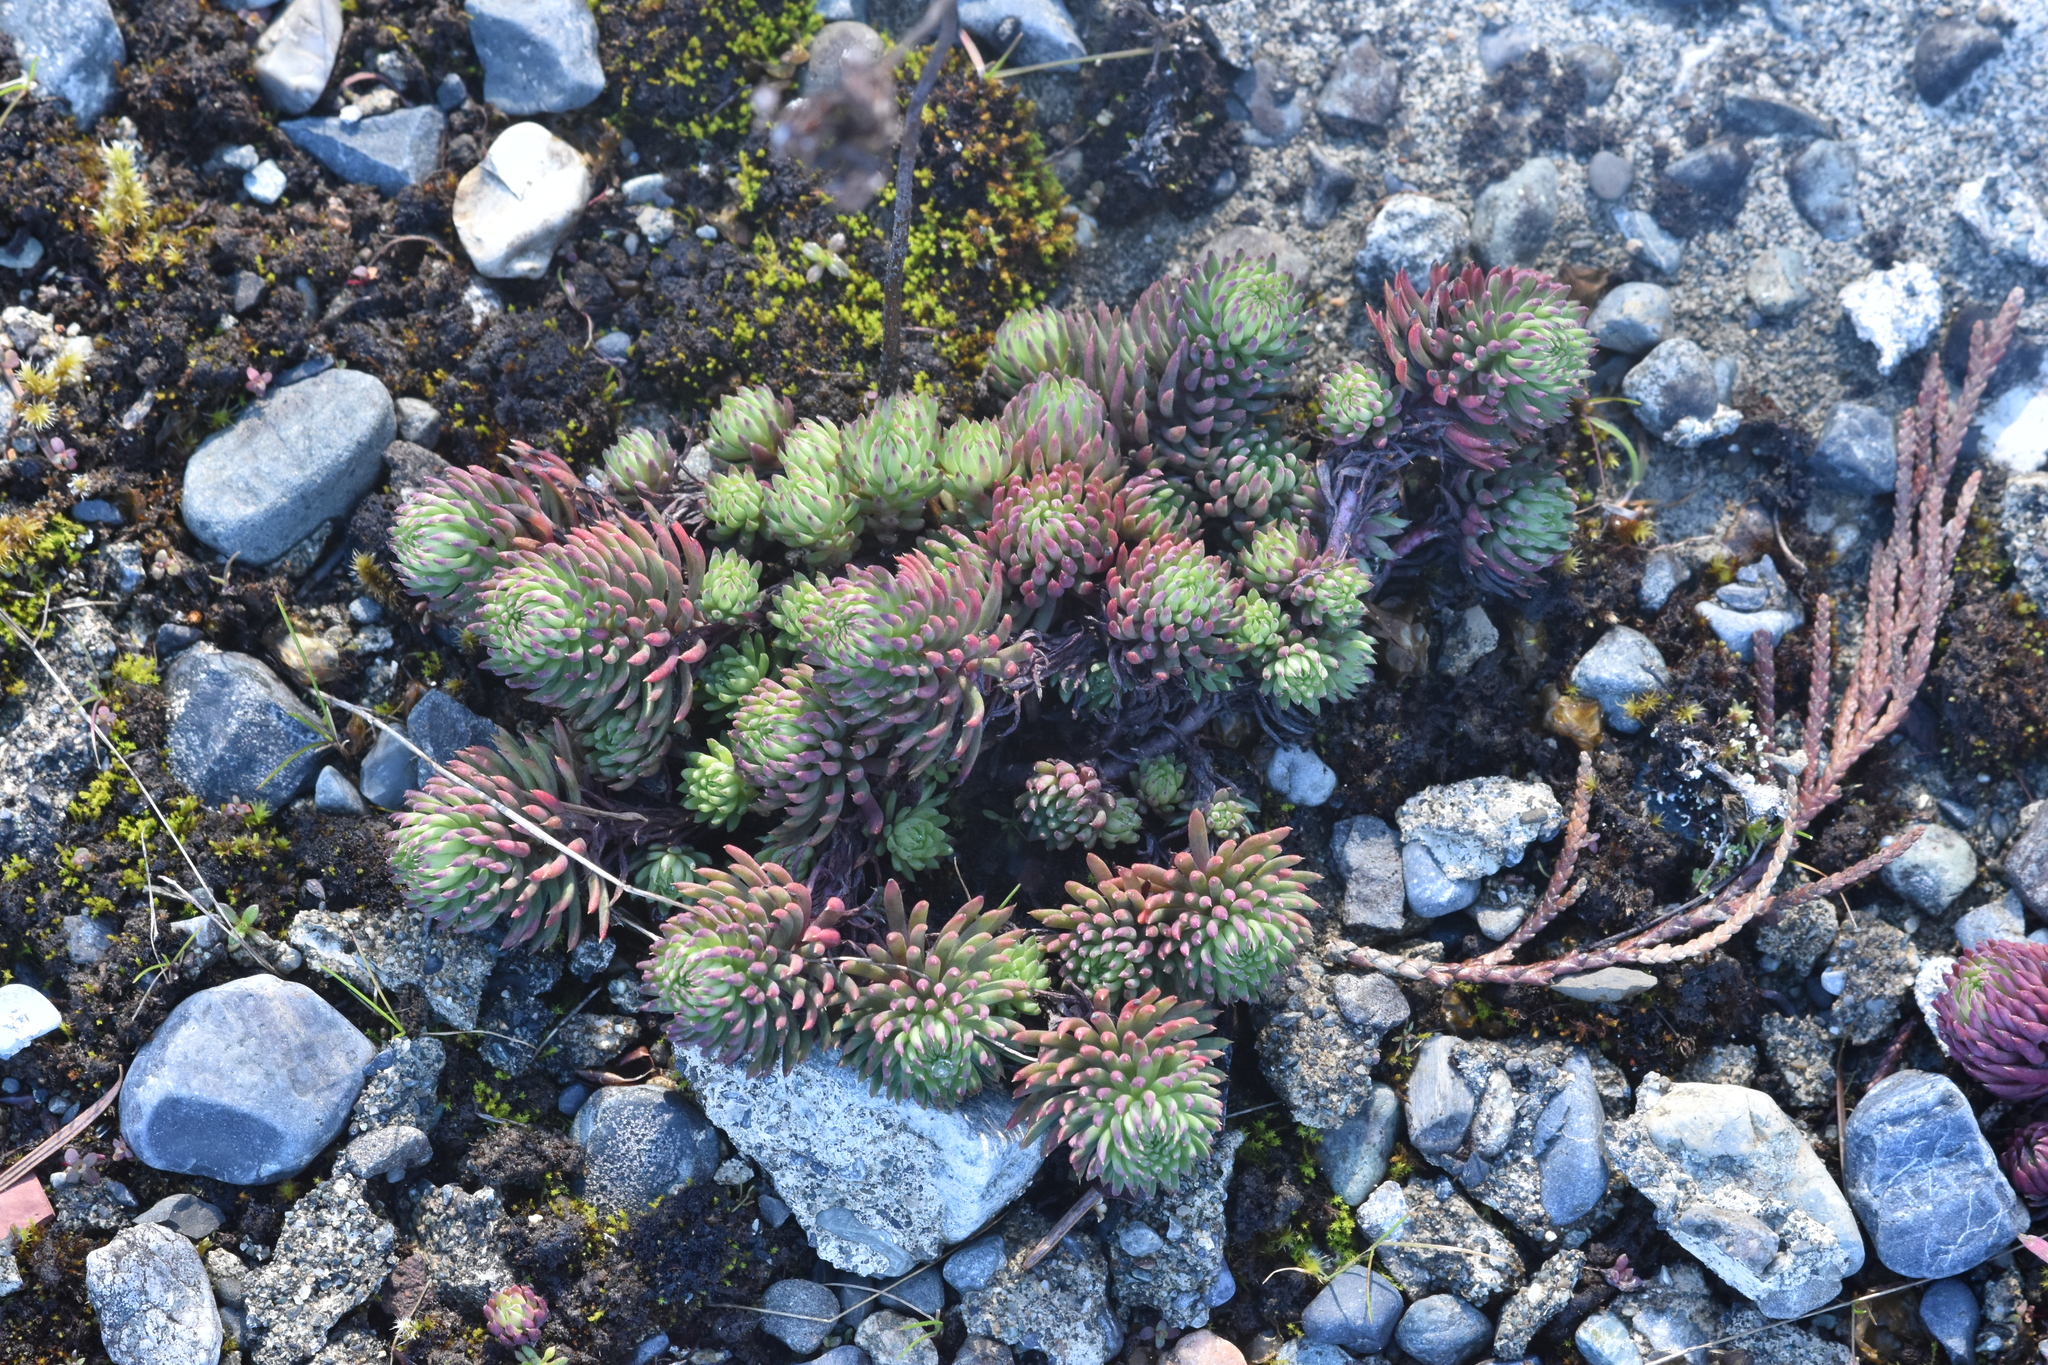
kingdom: Plantae
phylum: Tracheophyta
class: Magnoliopsida
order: Saxifragales
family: Crassulaceae
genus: Petrosedum
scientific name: Petrosedum forsterianum
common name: Forster's stonecrop
